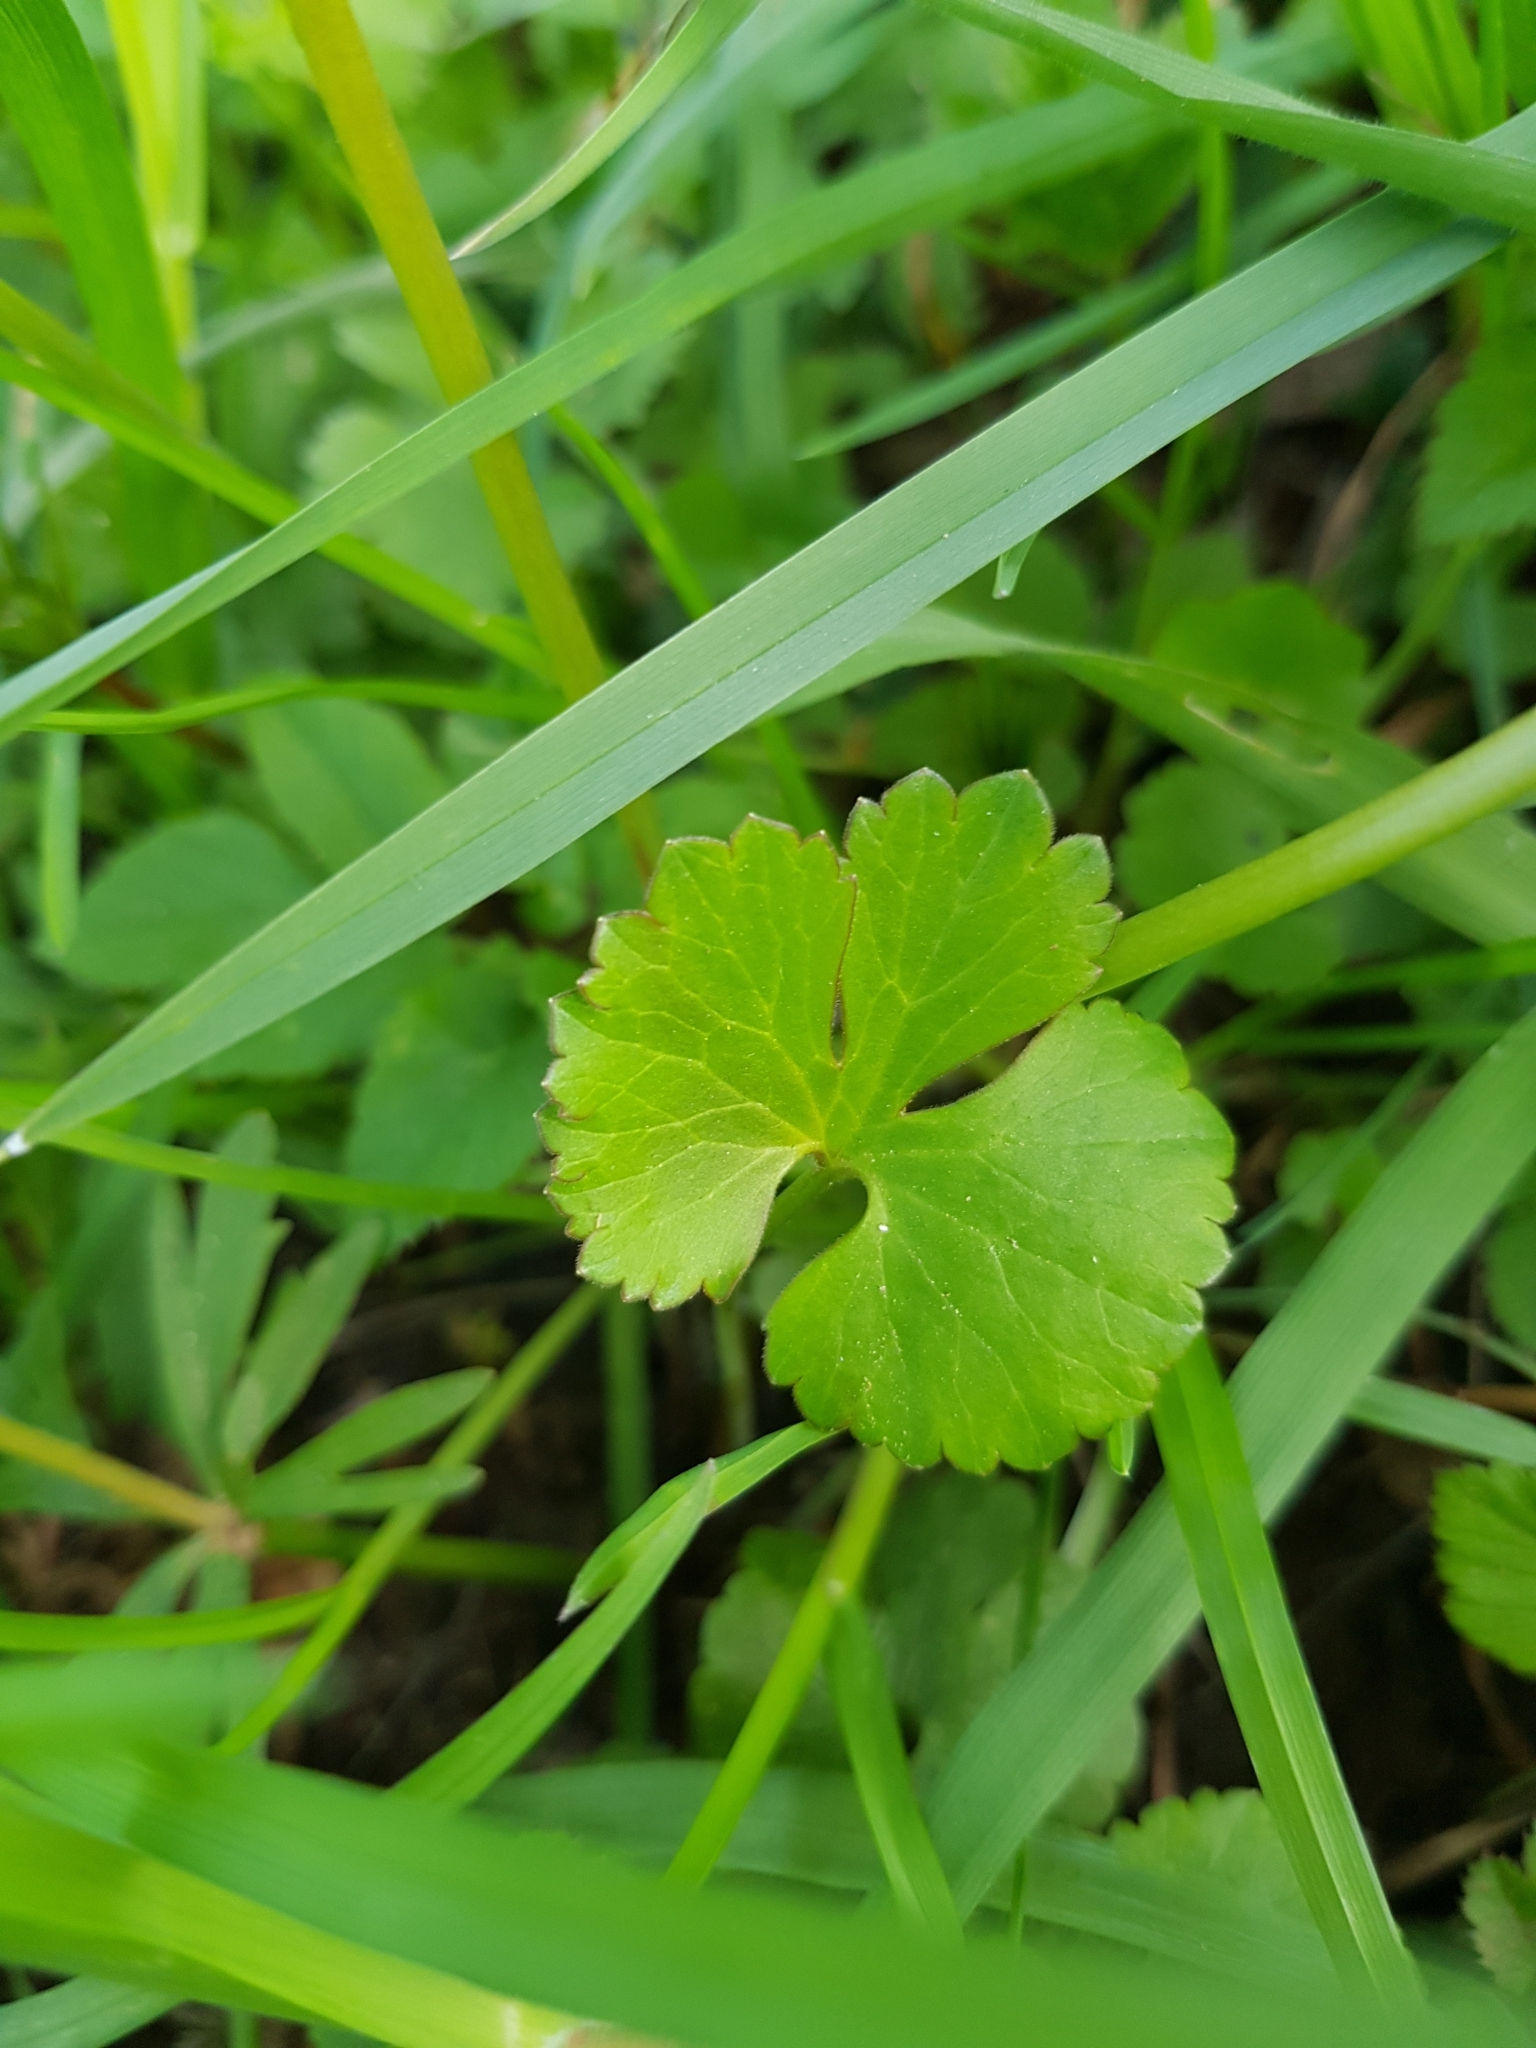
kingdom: Plantae
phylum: Tracheophyta
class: Magnoliopsida
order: Ranunculales
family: Ranunculaceae
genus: Ranunculus
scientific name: Ranunculus auricomus
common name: Goldilocks buttercup
